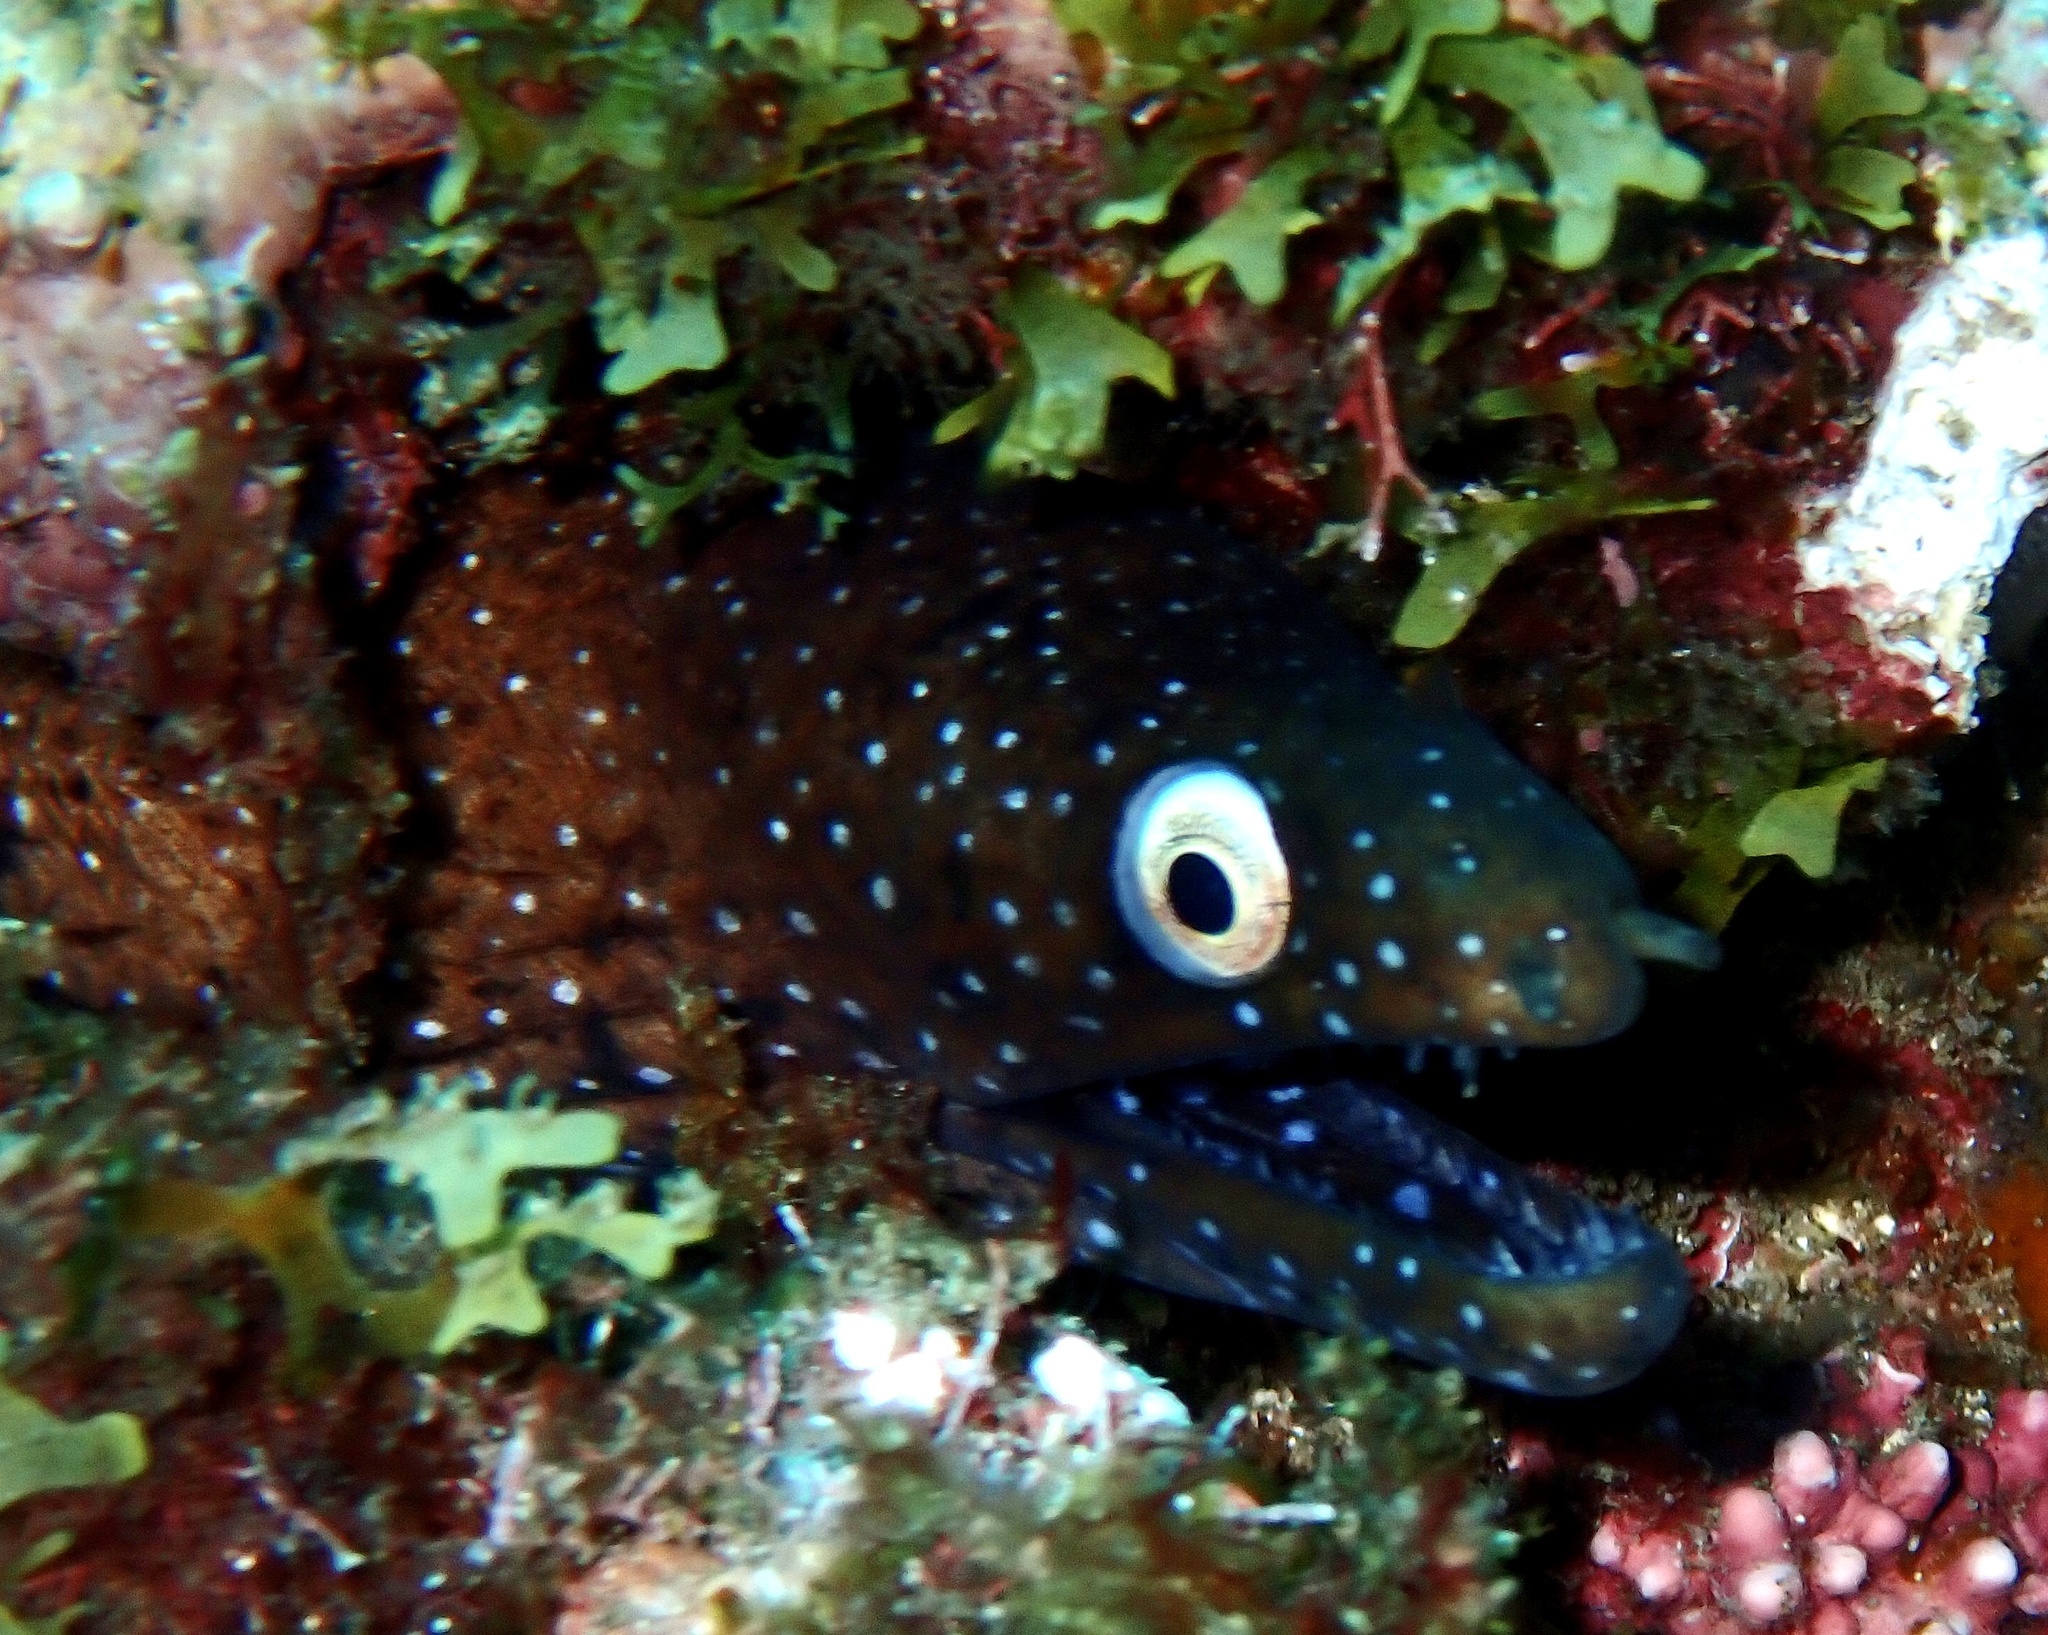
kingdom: Animalia
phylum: Chordata
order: Anguilliformes
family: Muraenidae
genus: Muraena
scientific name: Muraena augusti
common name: Mediterranean moray
